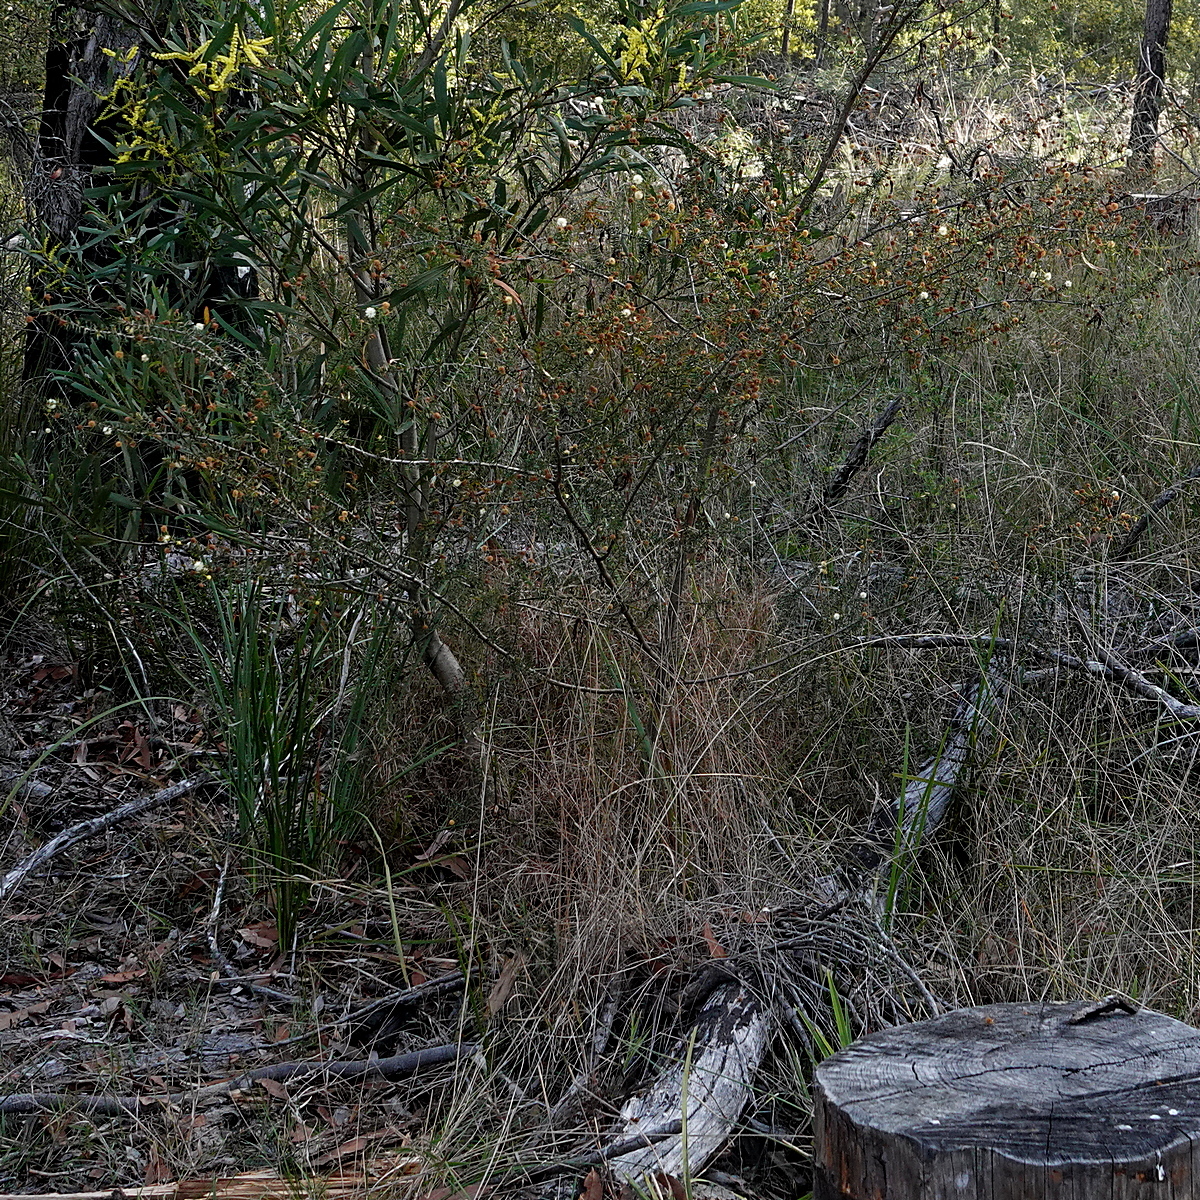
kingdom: Plantae
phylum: Tracheophyta
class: Magnoliopsida
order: Fabales
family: Fabaceae
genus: Acacia
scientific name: Acacia ulicifolia
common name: Juniper wattle
